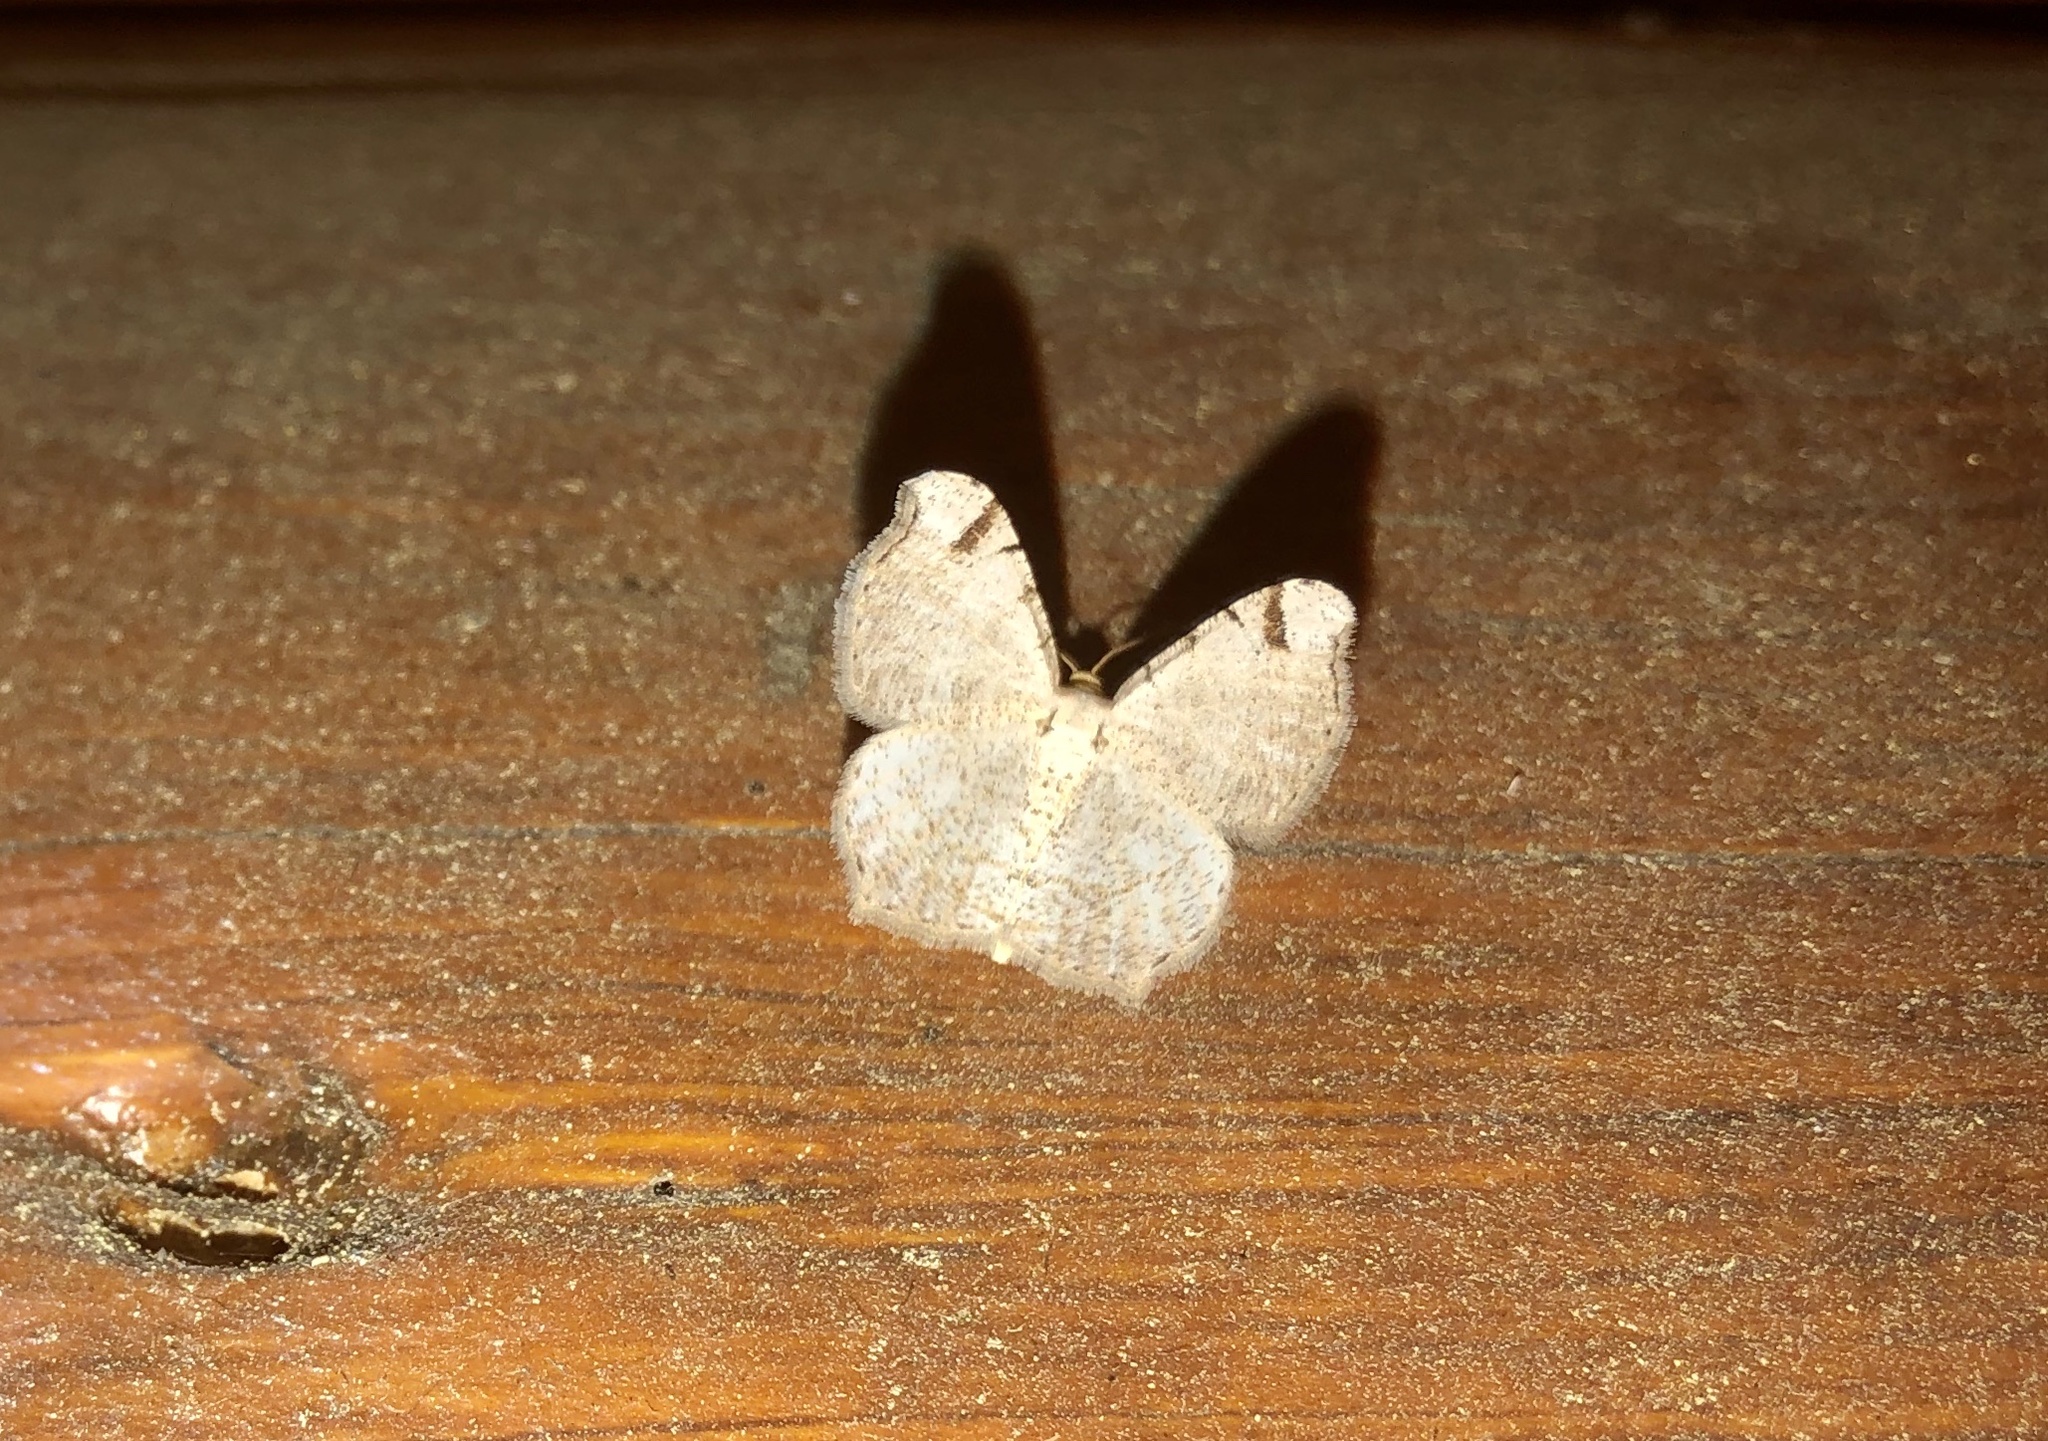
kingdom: Animalia
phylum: Arthropoda
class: Insecta
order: Lepidoptera
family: Geometridae
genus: Macaria
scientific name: Macaria bisignata
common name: Red-headed inchworm
